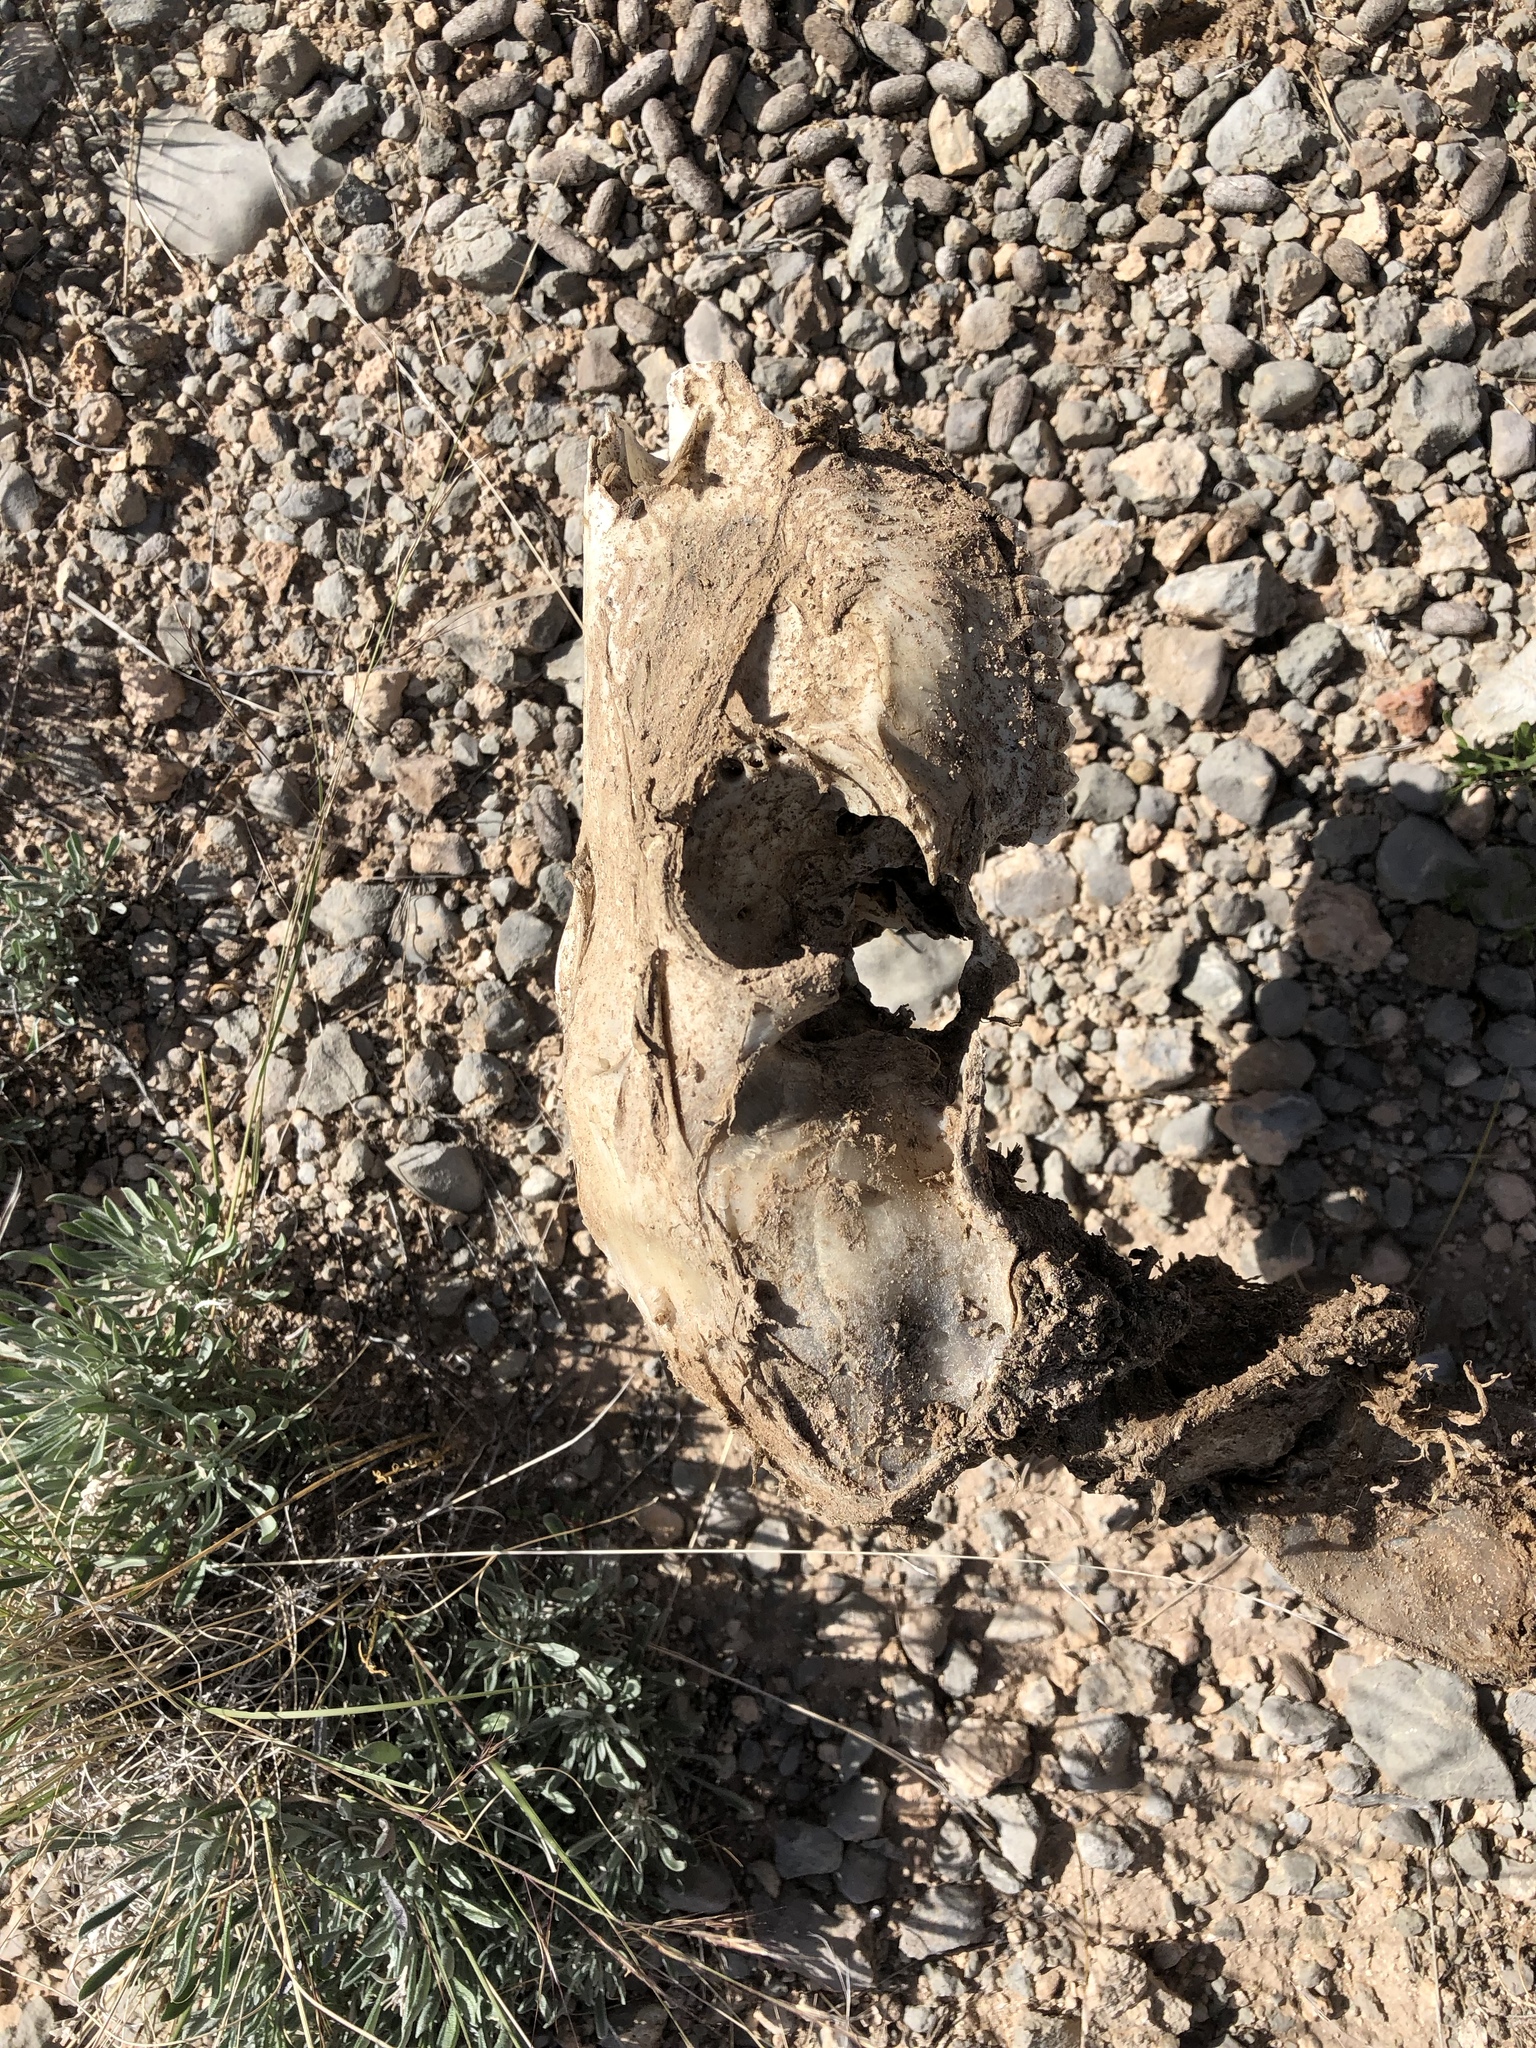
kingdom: Animalia
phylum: Chordata
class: Mammalia
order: Artiodactyla
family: Cervidae
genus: Odocoileus
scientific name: Odocoileus hemionus
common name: Mule deer
